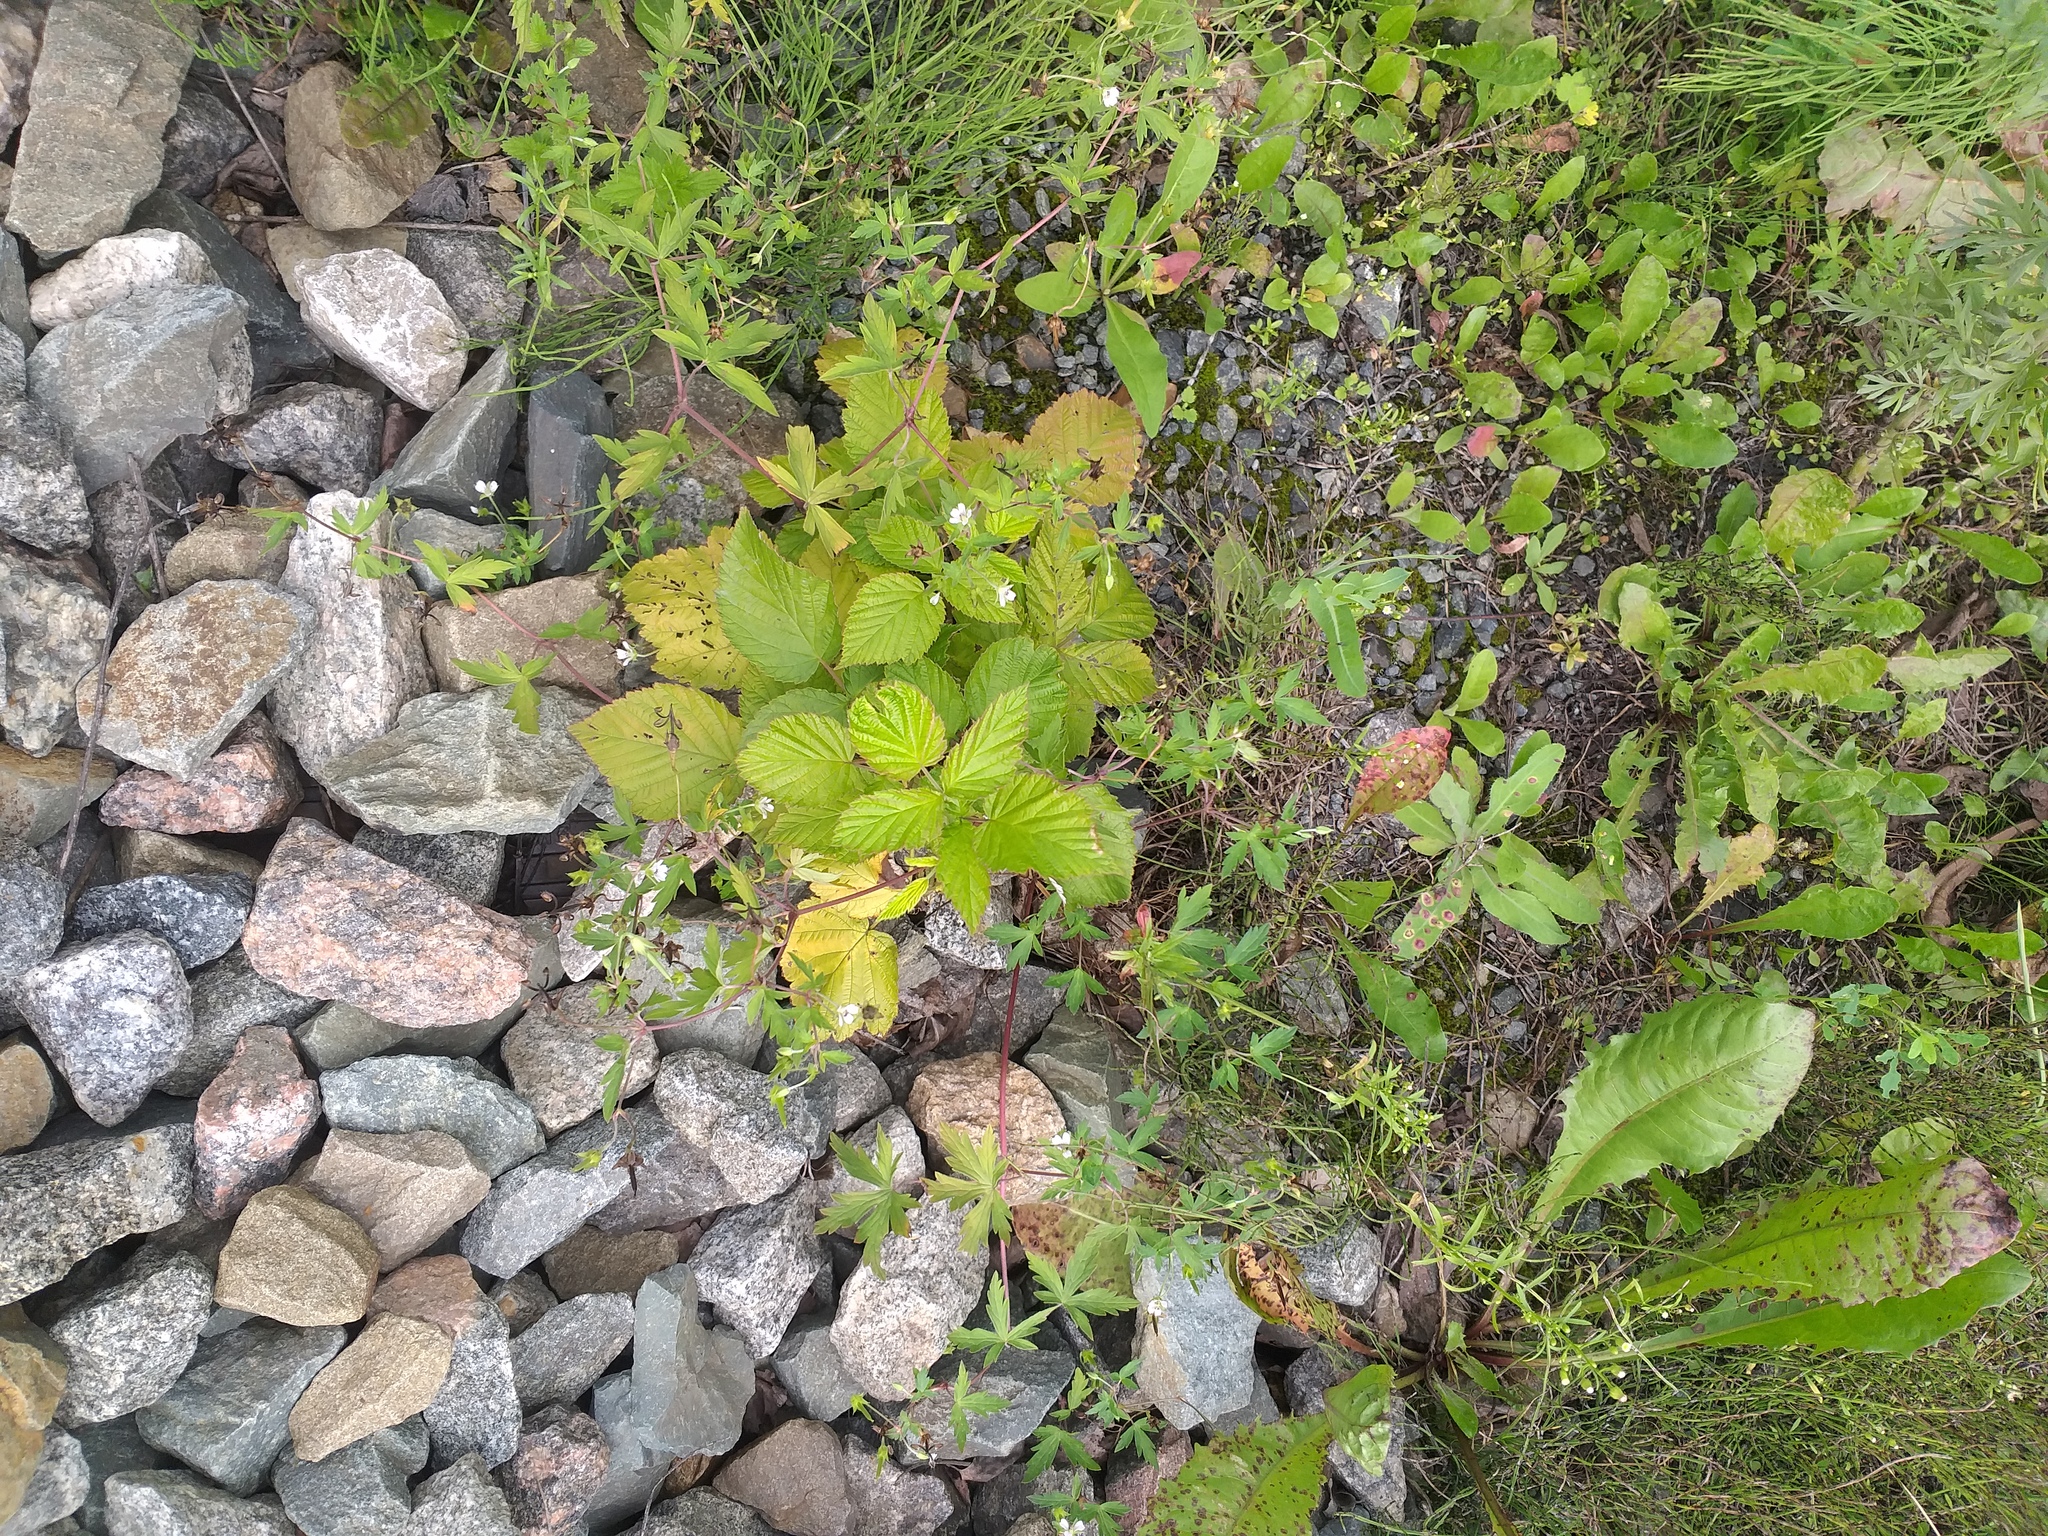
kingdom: Plantae
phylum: Tracheophyta
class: Magnoliopsida
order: Geraniales
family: Geraniaceae
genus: Geranium
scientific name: Geranium sibiricum
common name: Siberian crane's-bill
